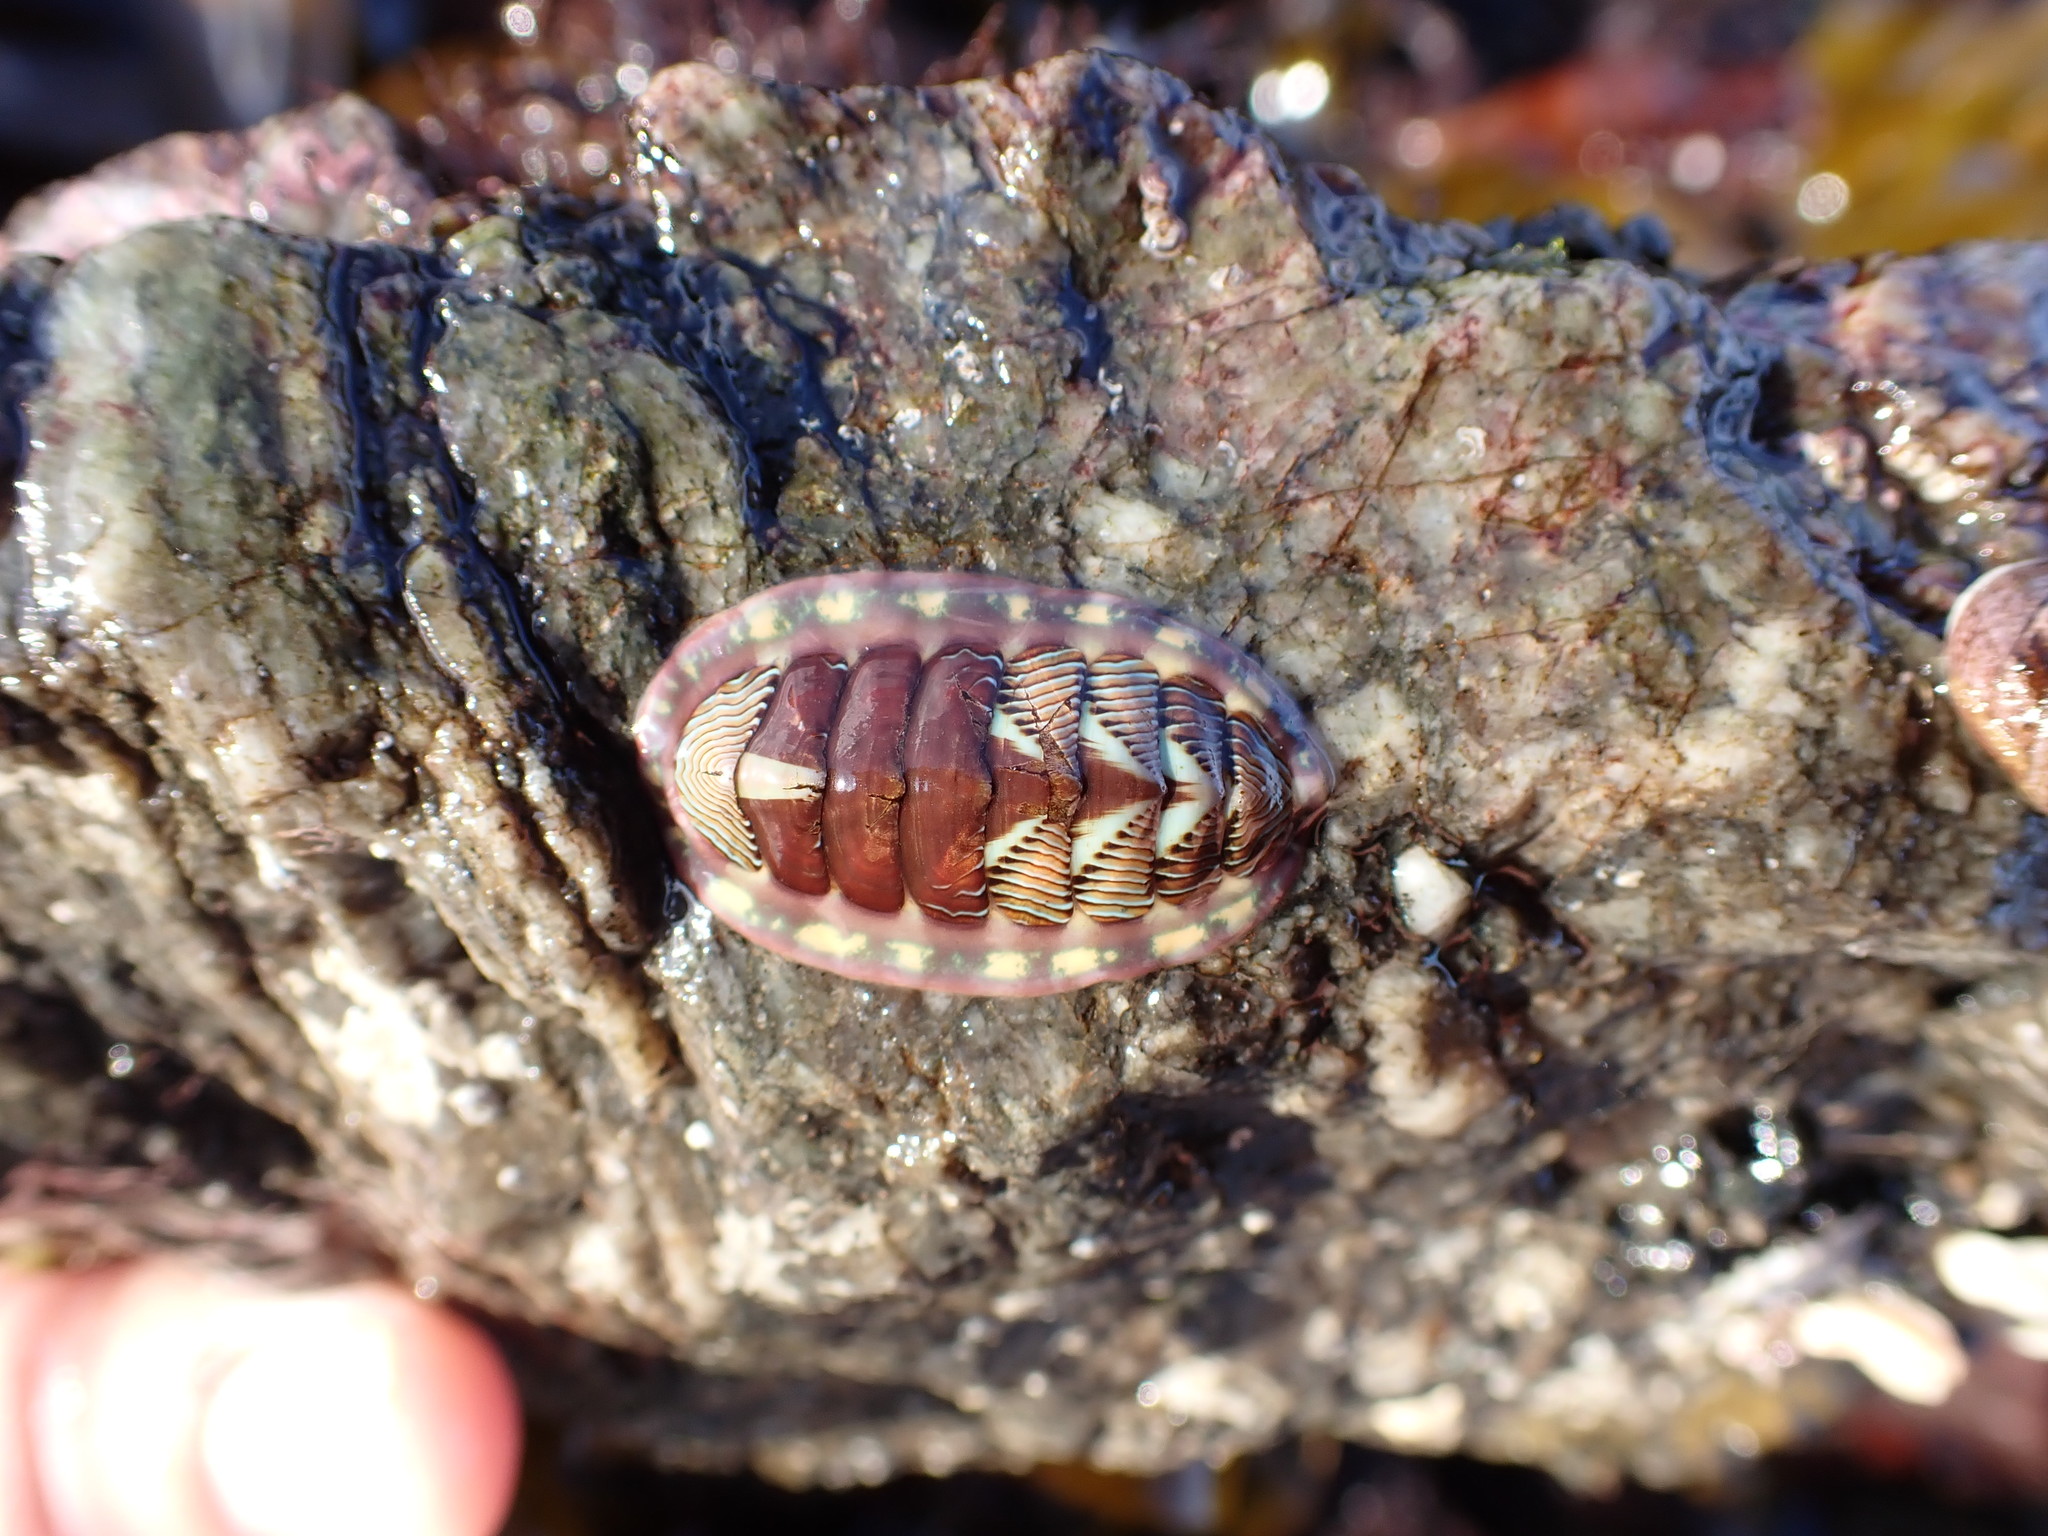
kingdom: Animalia
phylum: Mollusca
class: Polyplacophora
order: Chitonida
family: Tonicellidae
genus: Tonicella
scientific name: Tonicella lineata
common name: Lined chiton
